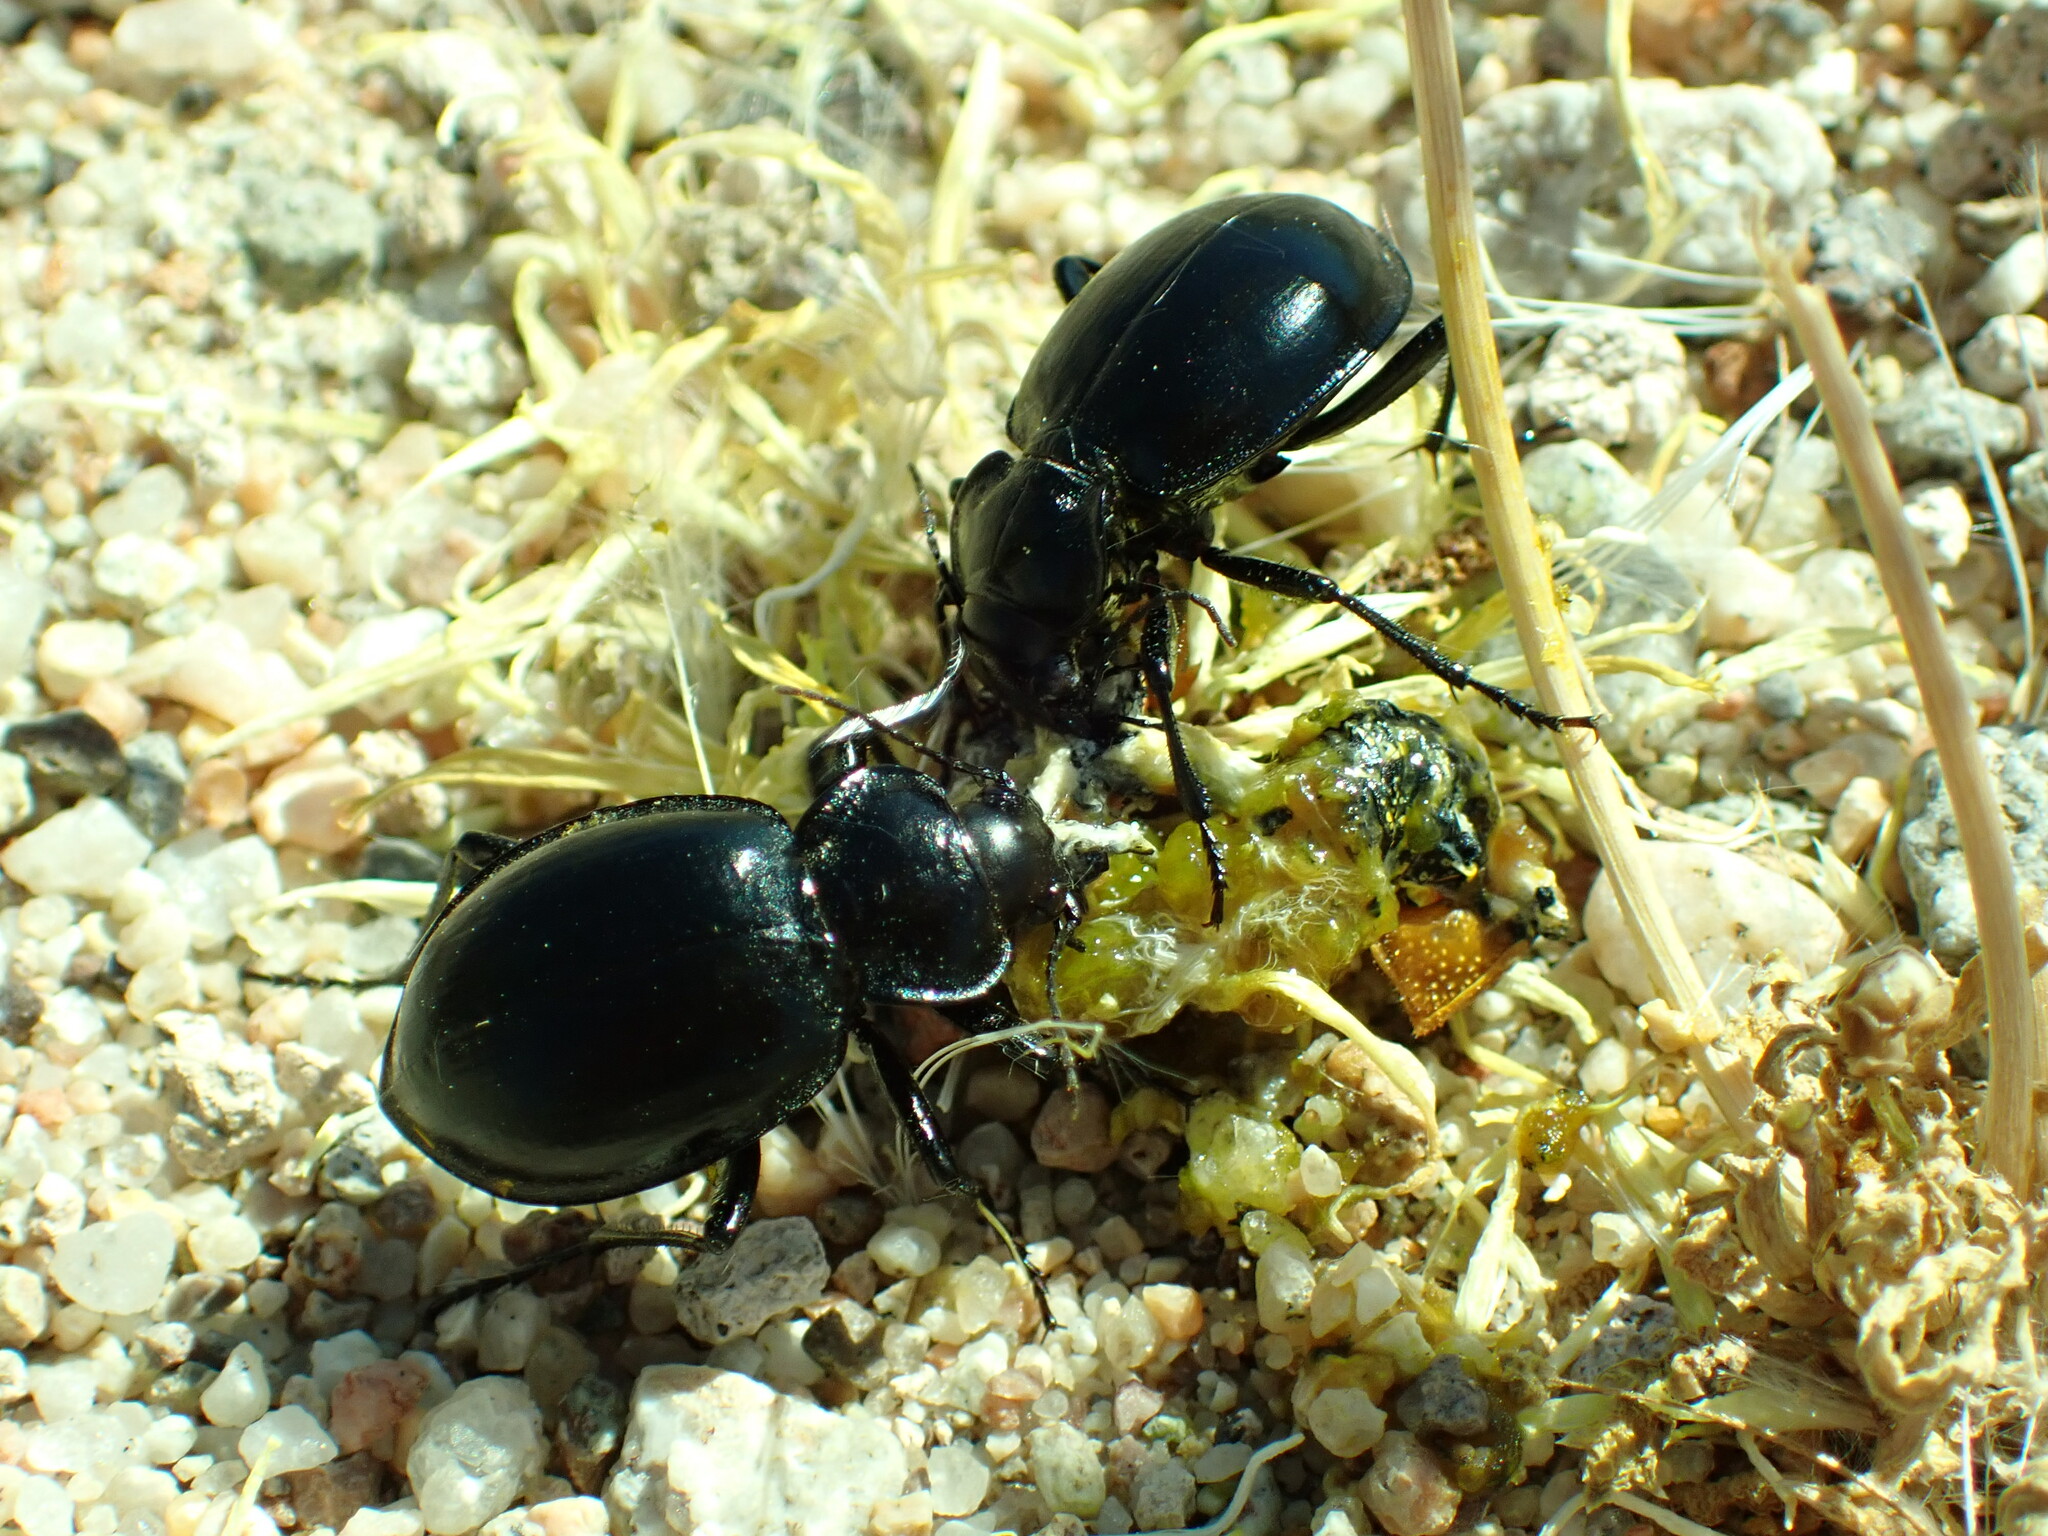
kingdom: Animalia
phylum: Arthropoda
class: Insecta
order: Coleoptera
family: Carabidae
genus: Calosoma
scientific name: Calosoma latipenne
